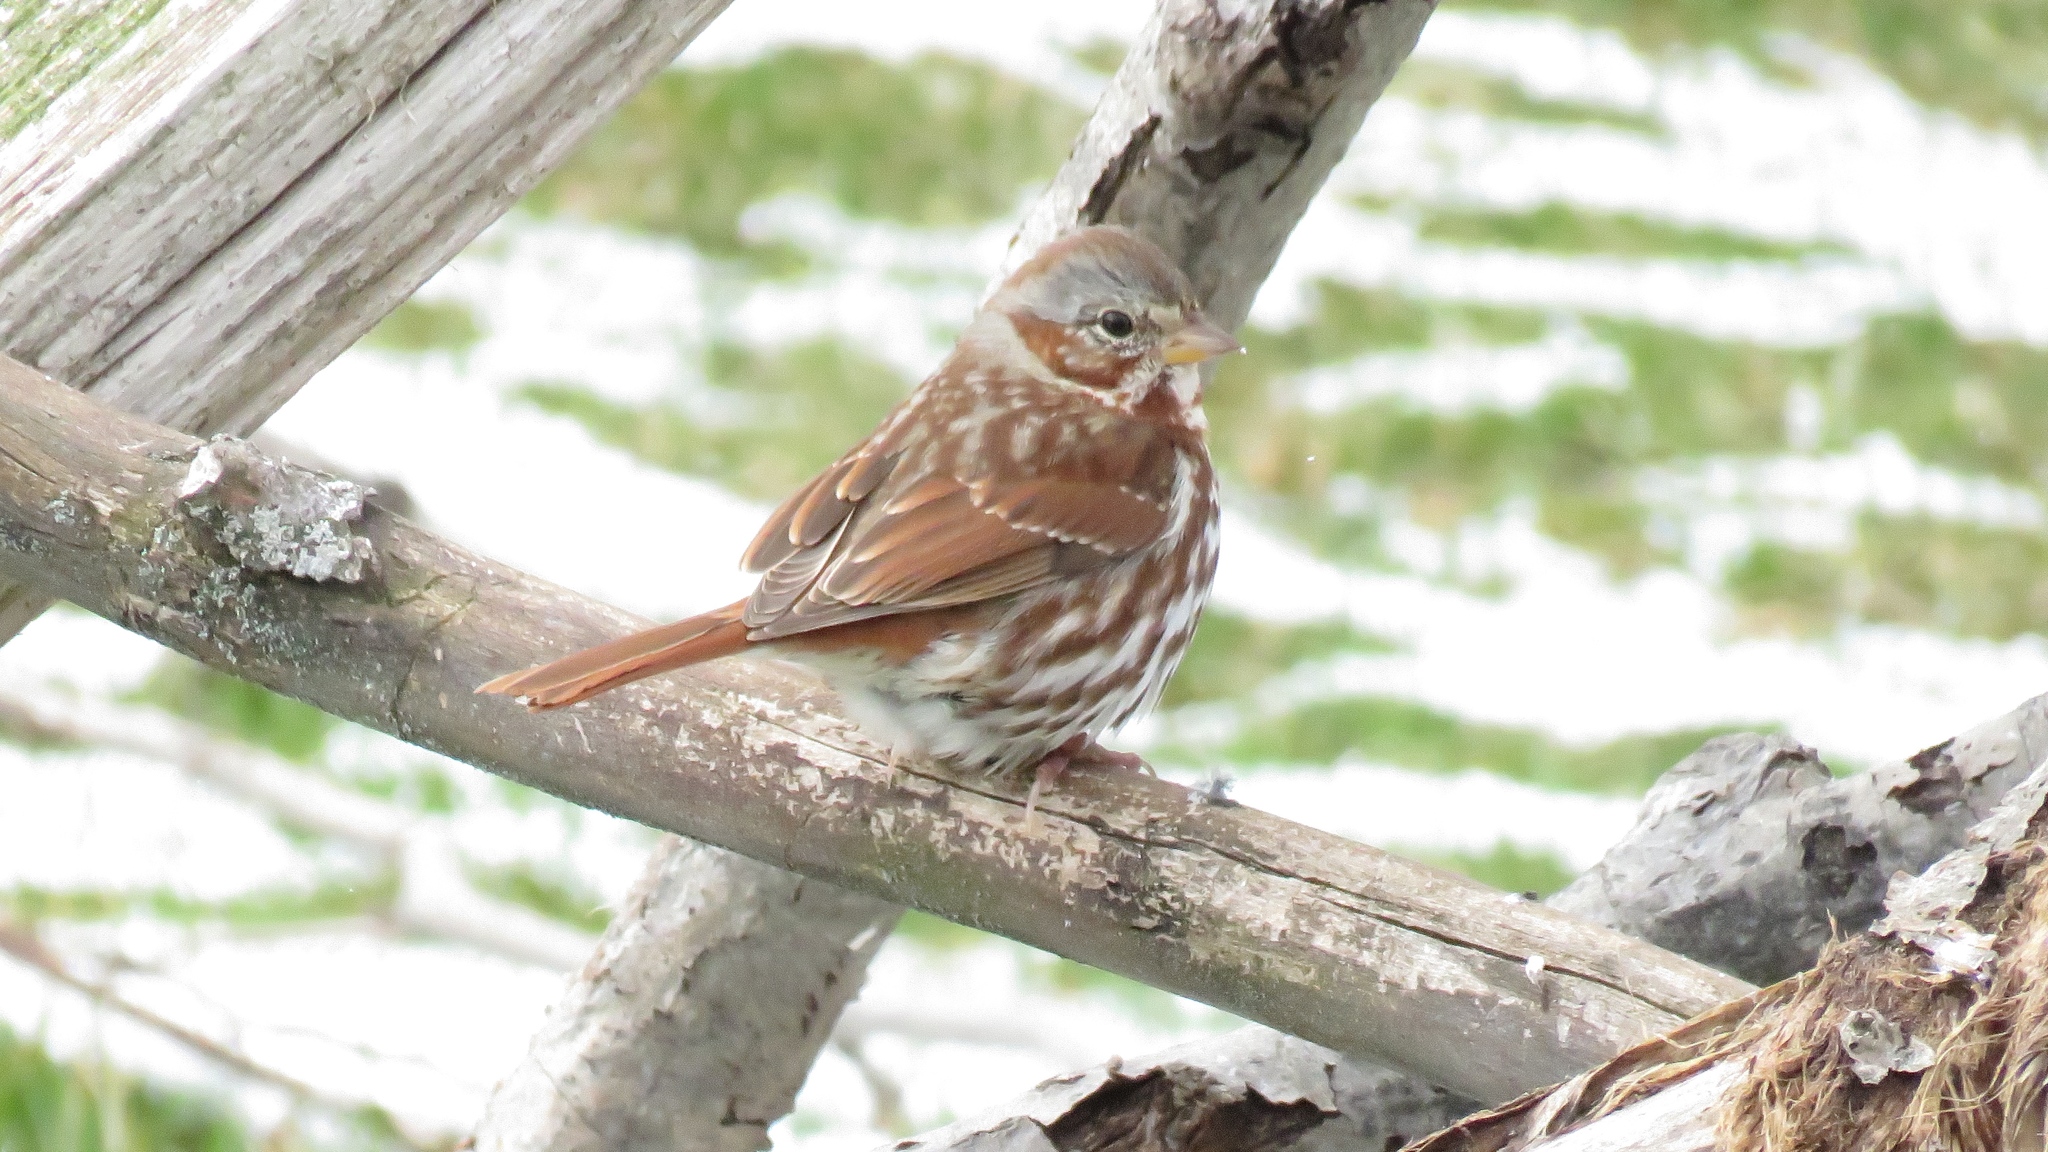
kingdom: Animalia
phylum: Chordata
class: Aves
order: Passeriformes
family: Passerellidae
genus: Passerella
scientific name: Passerella iliaca
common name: Fox sparrow
